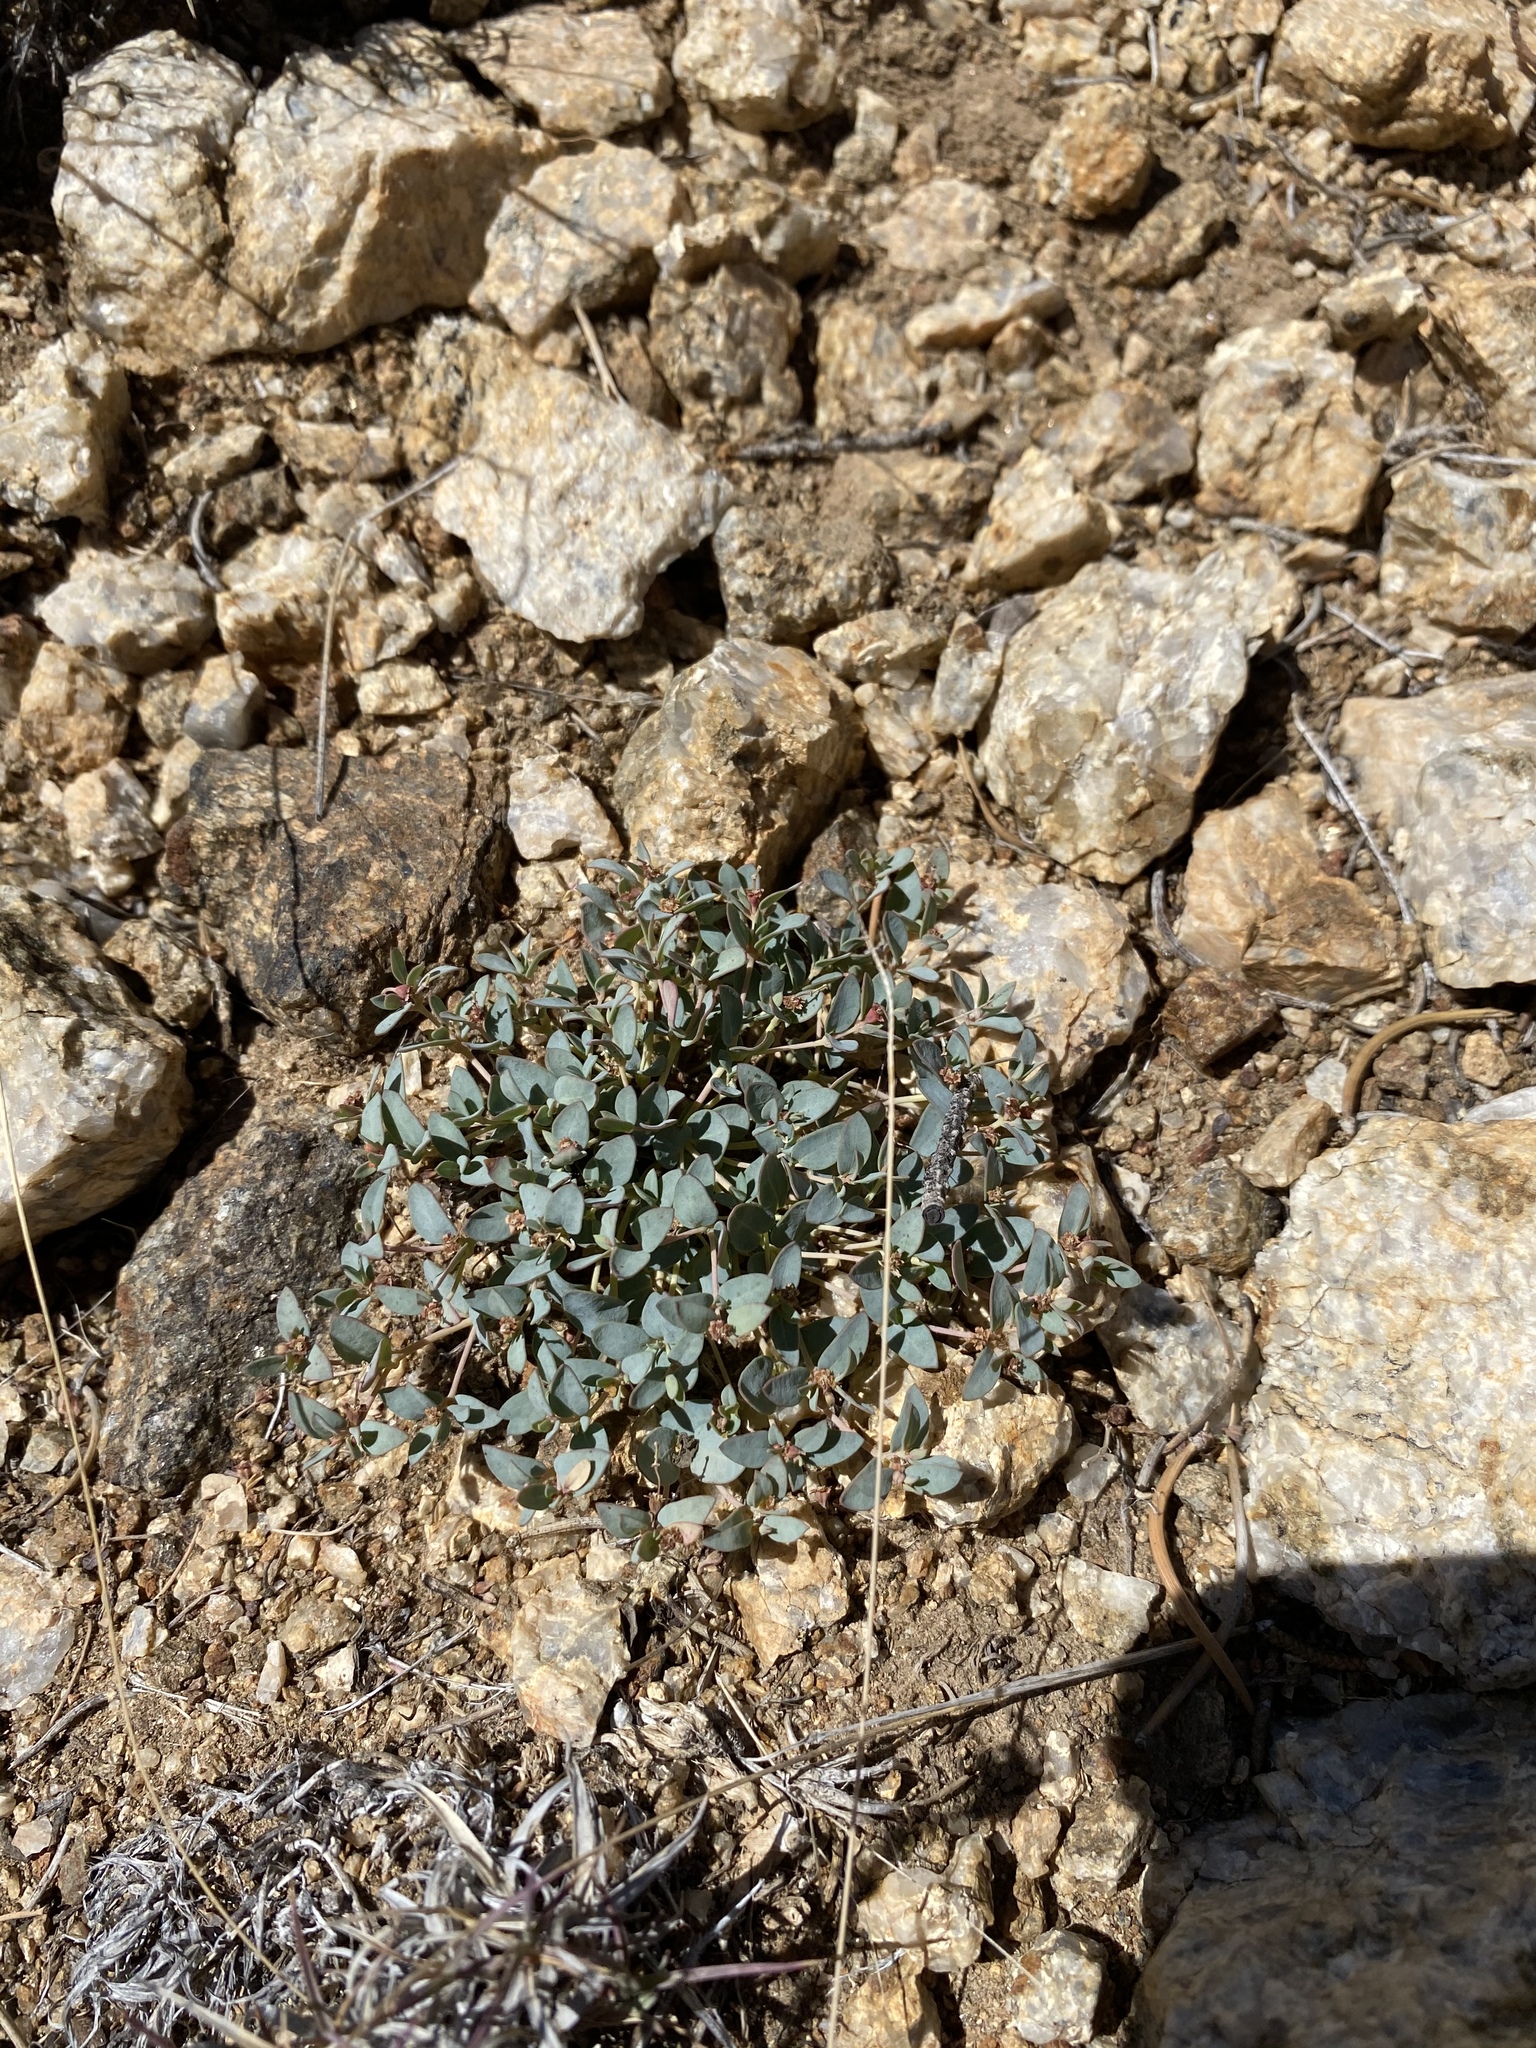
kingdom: Plantae
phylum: Tracheophyta
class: Magnoliopsida
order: Malpighiales
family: Euphorbiaceae
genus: Euphorbia
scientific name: Euphorbia fendleri
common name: Fendler's euphorbia
